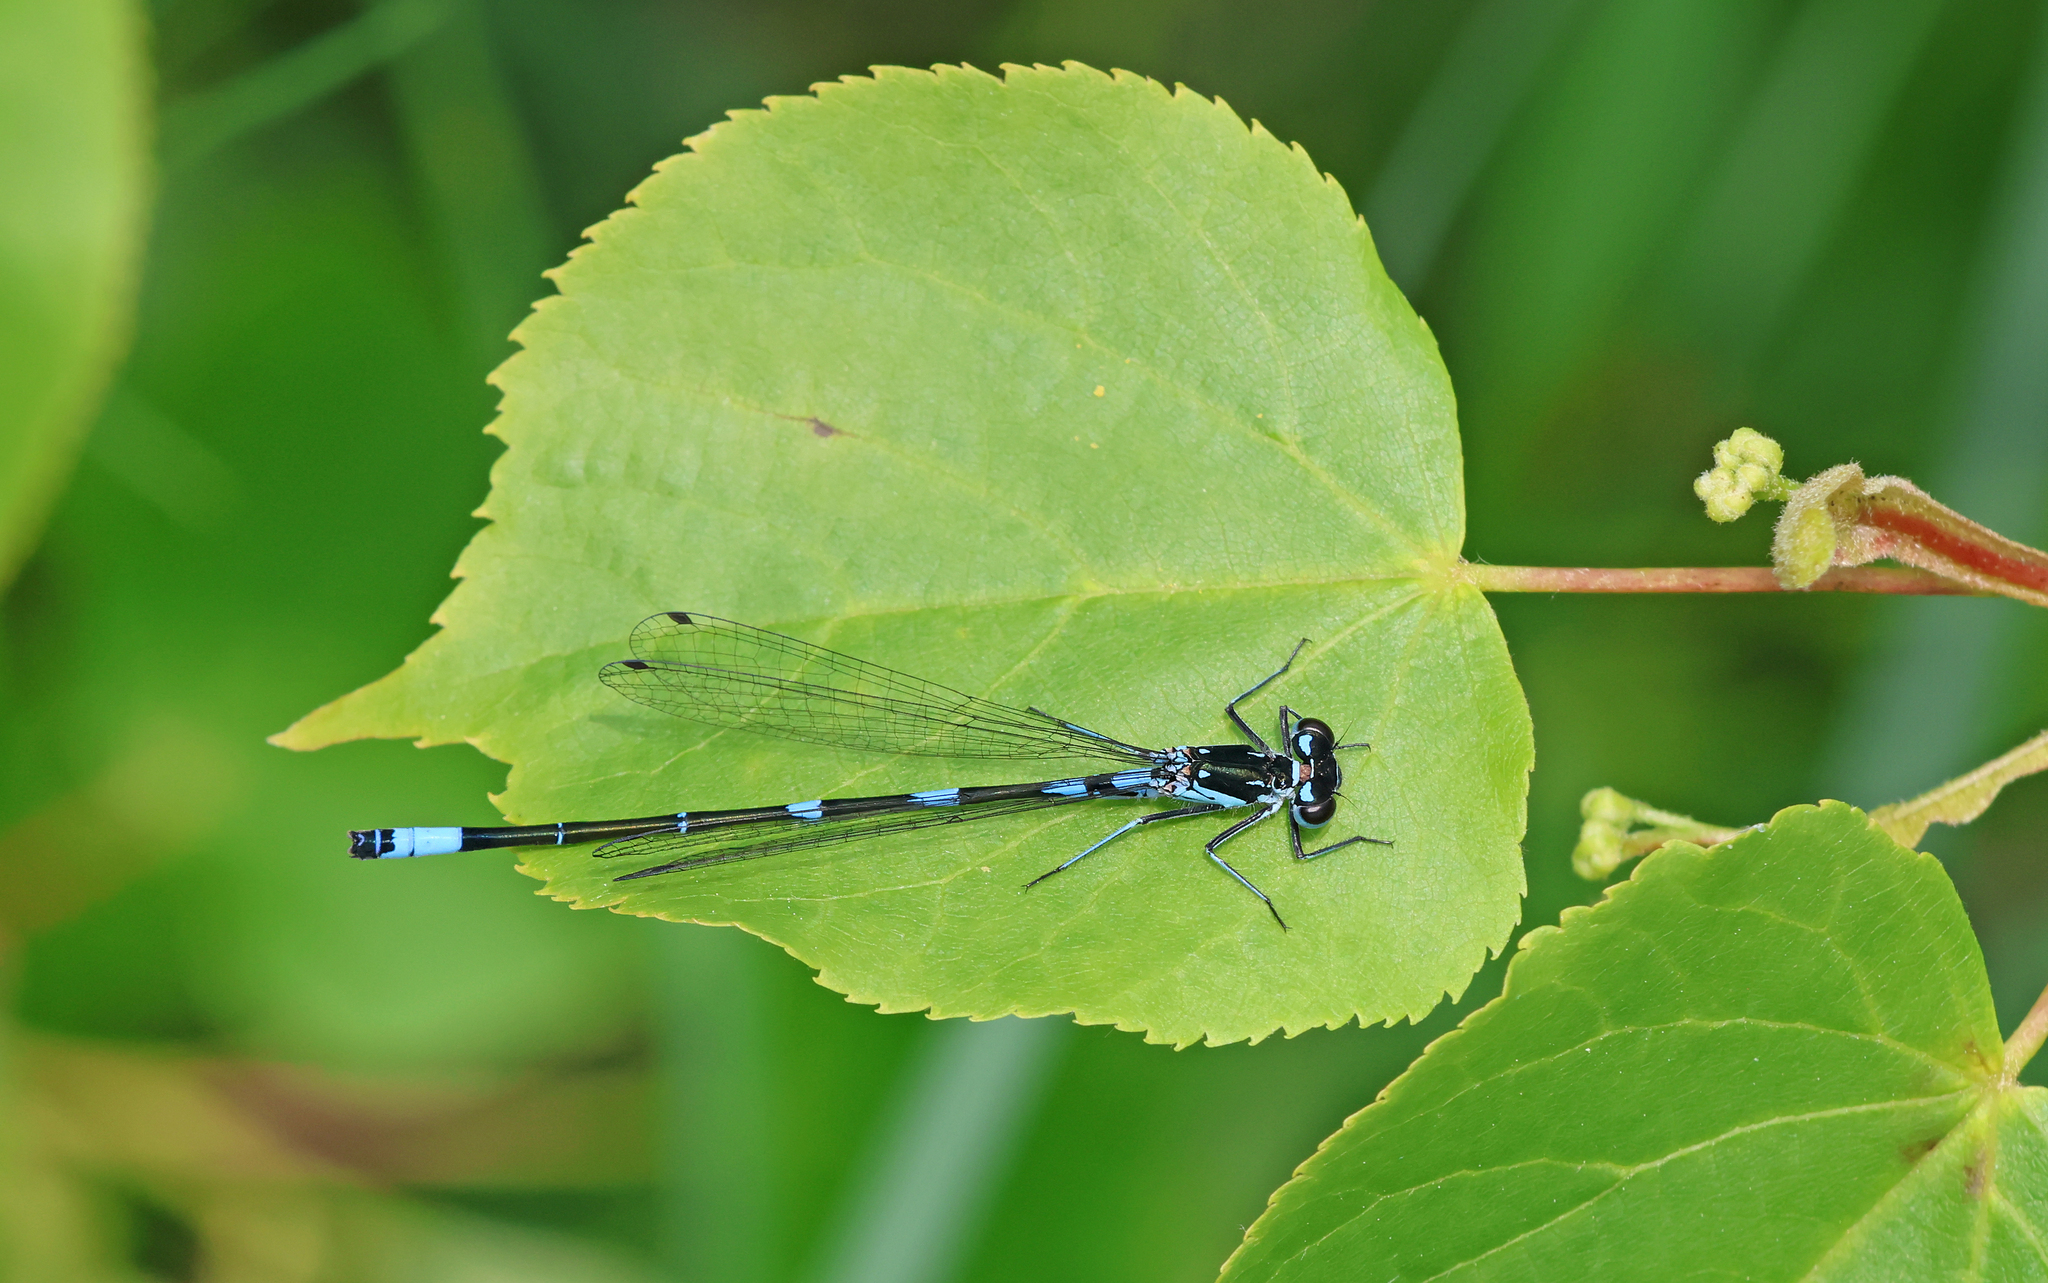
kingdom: Animalia
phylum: Arthropoda
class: Insecta
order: Odonata
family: Coenagrionidae
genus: Coenagrion
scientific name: Coenagrion pulchellum
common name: Variable bluet
